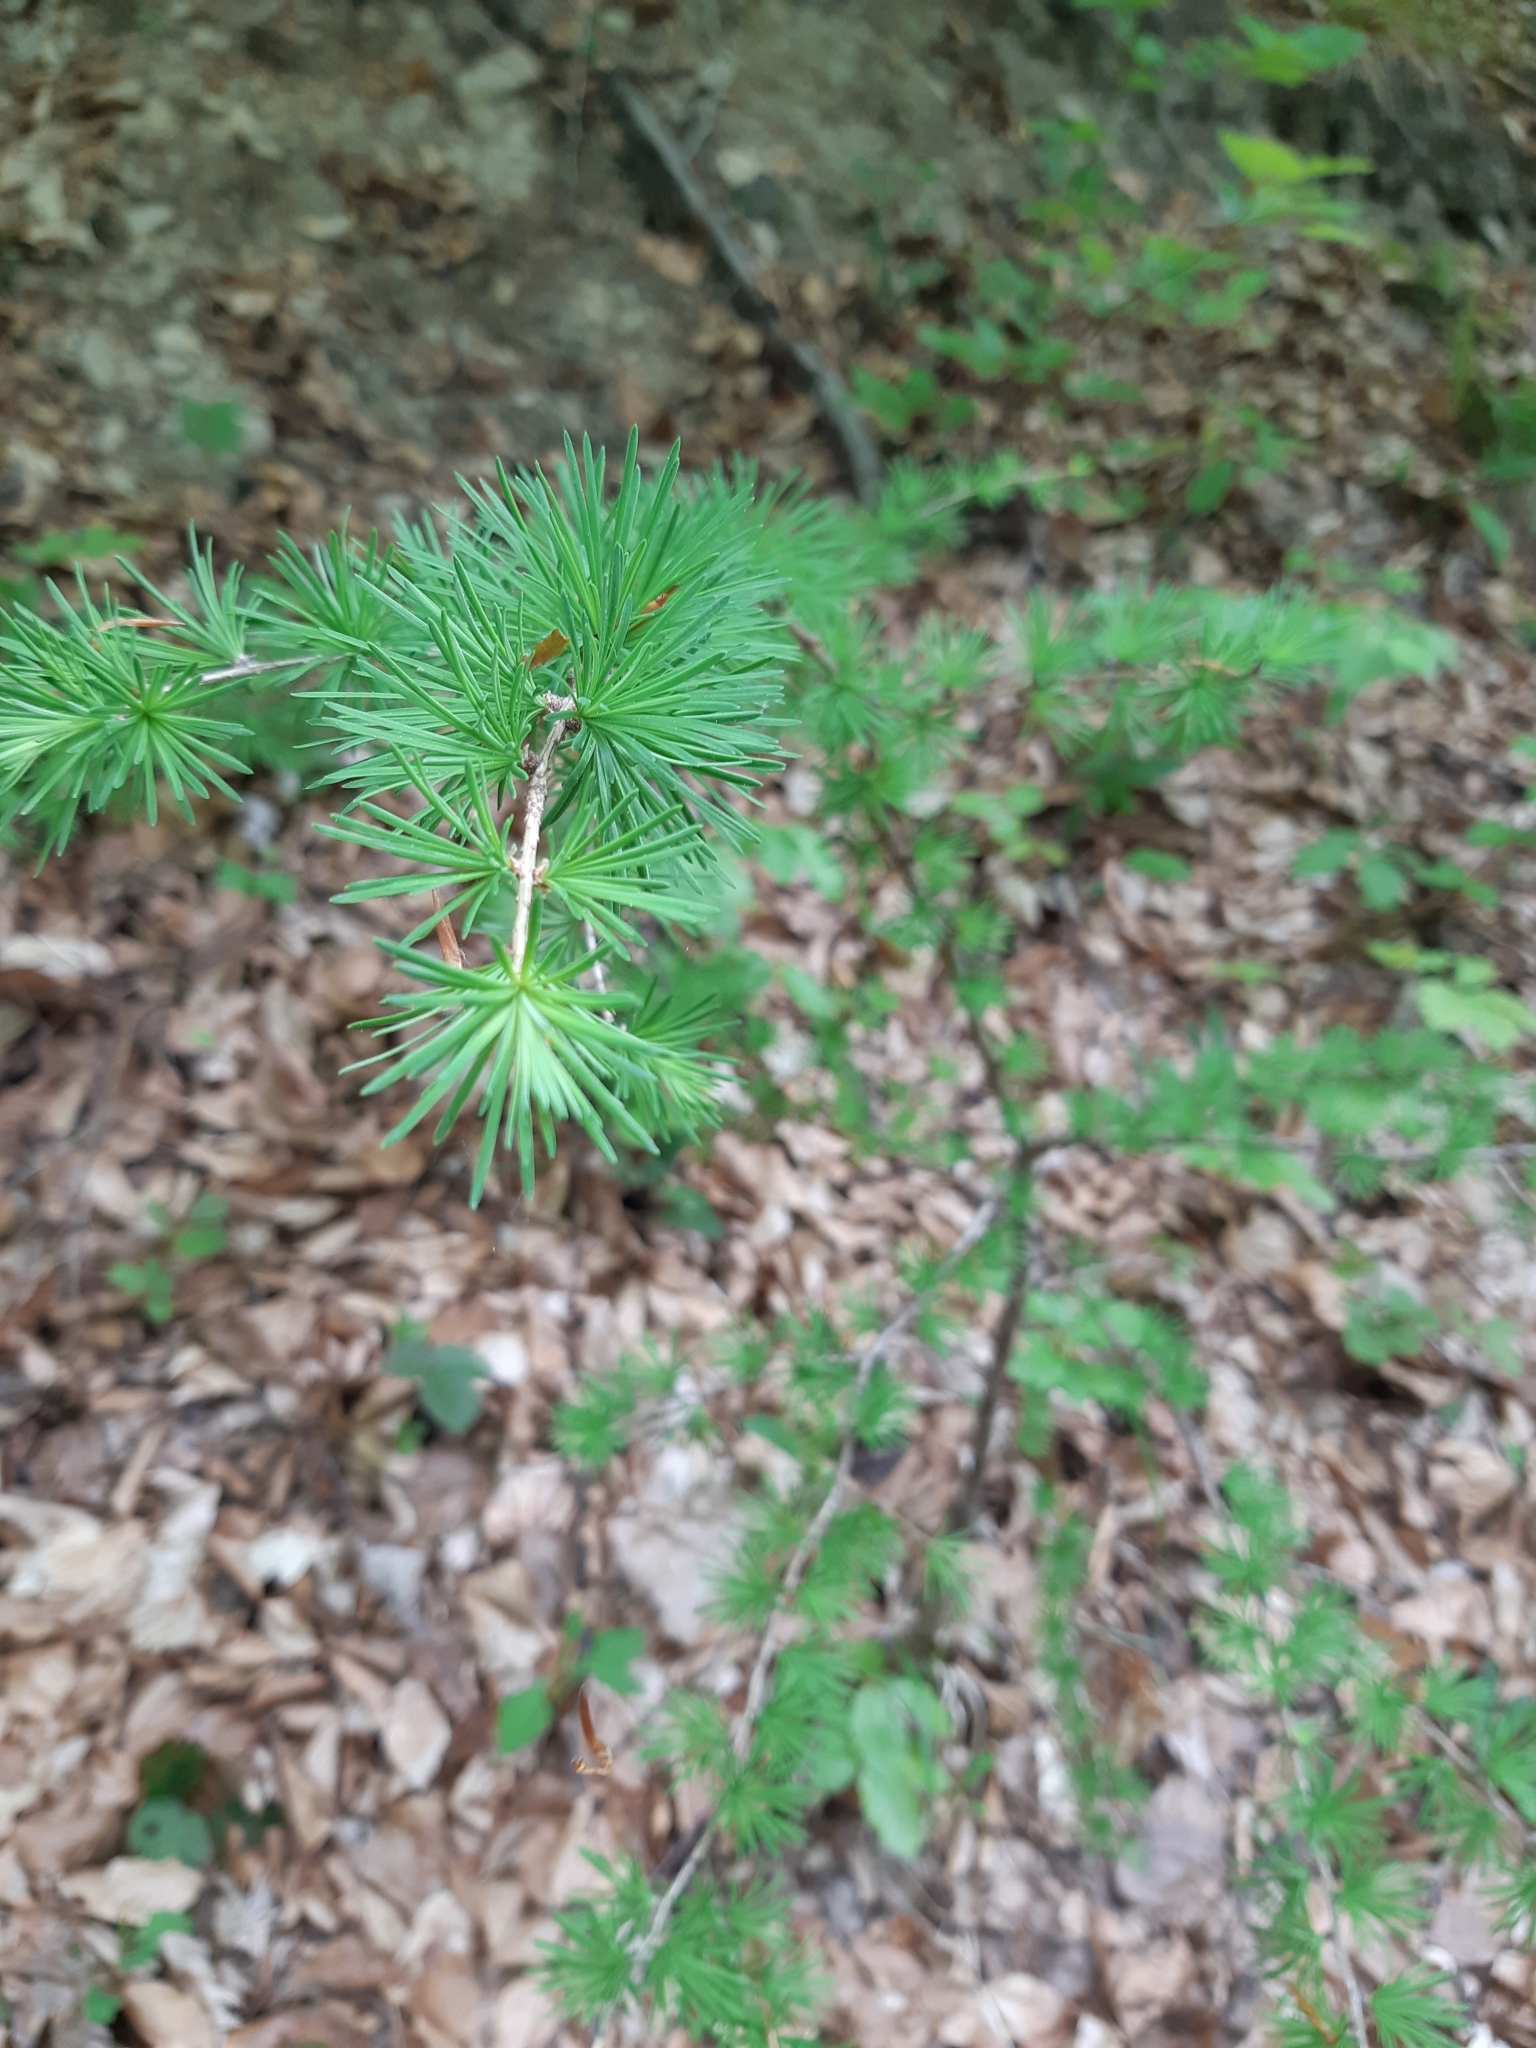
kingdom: Plantae
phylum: Tracheophyta
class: Pinopsida
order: Pinales
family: Pinaceae
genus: Larix
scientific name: Larix decidua
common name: European larch
